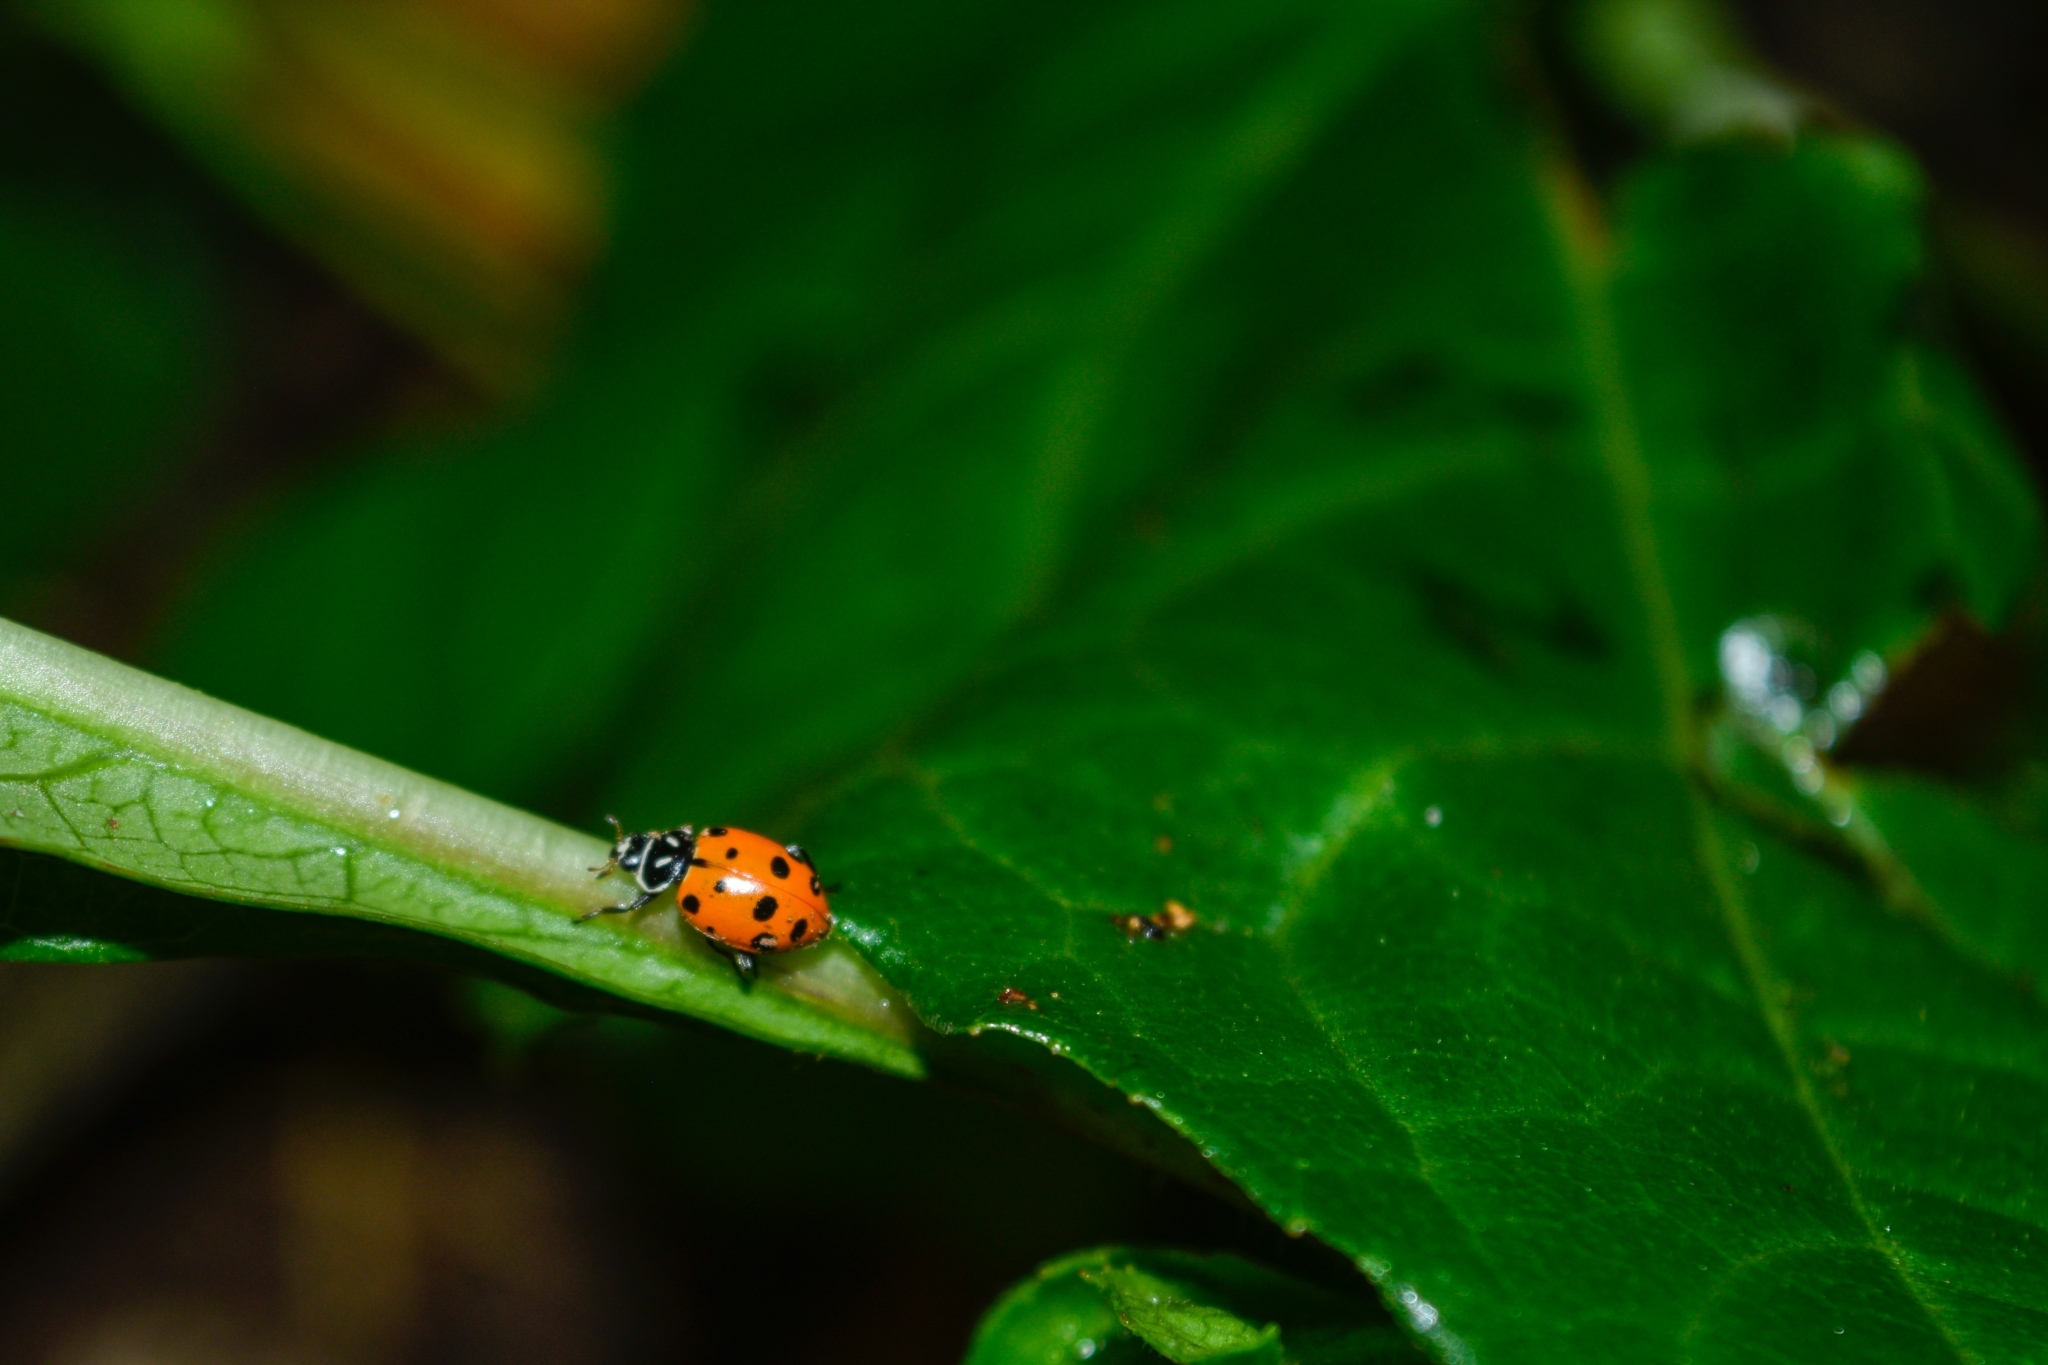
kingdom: Animalia
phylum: Arthropoda
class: Insecta
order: Coleoptera
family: Coccinellidae
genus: Hippodamia
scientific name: Hippodamia convergens
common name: Convergent lady beetle
